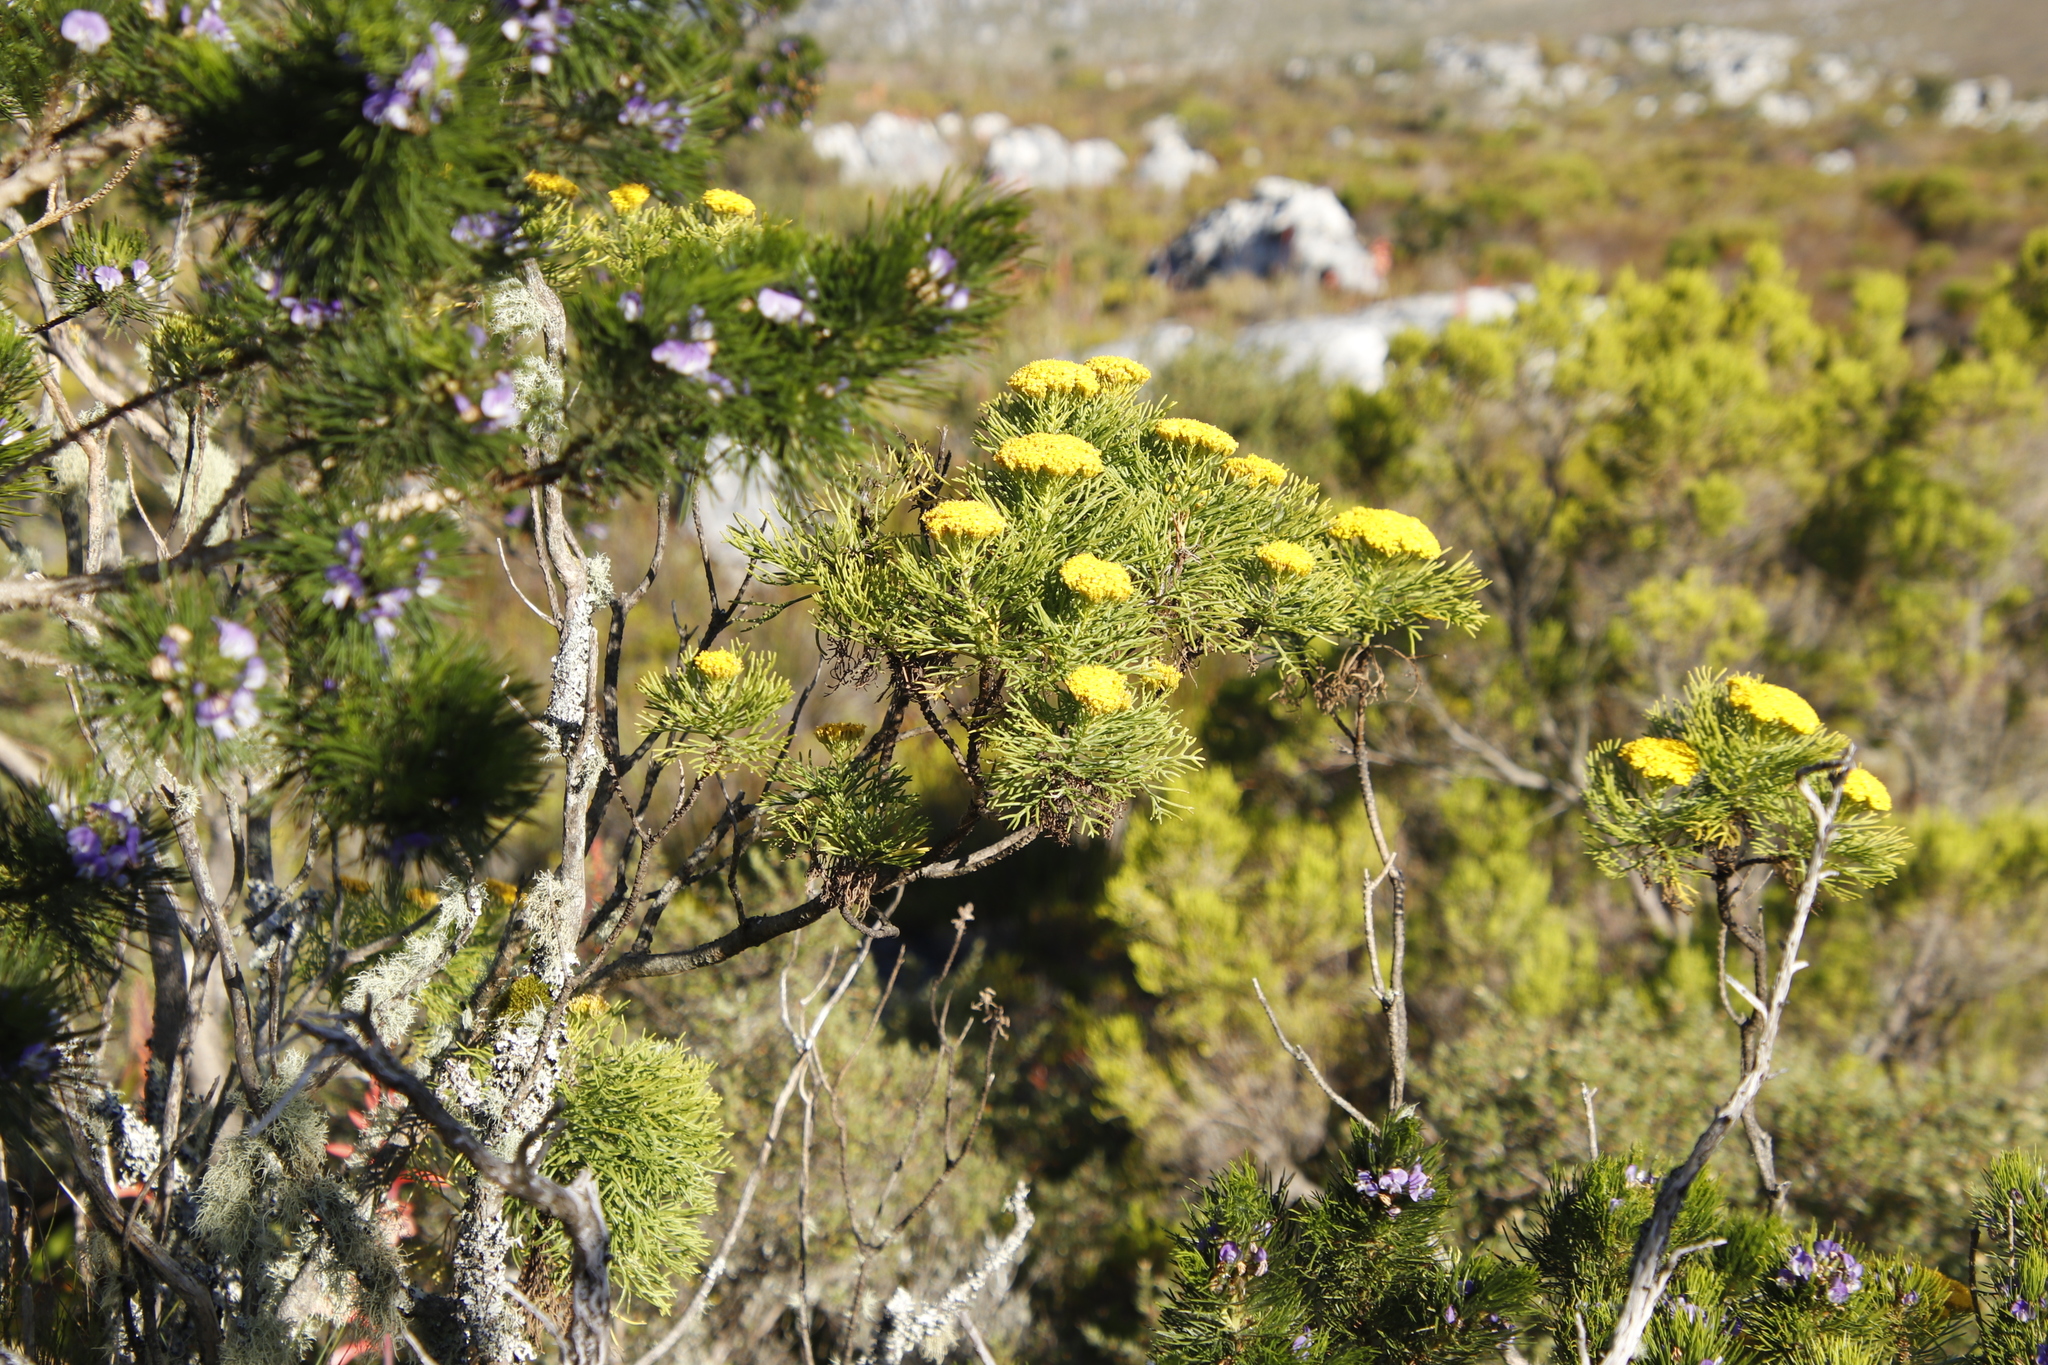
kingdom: Plantae
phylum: Tracheophyta
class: Magnoliopsida
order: Asterales
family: Asteraceae
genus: Hymenolepis
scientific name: Hymenolepis crithmifolia
